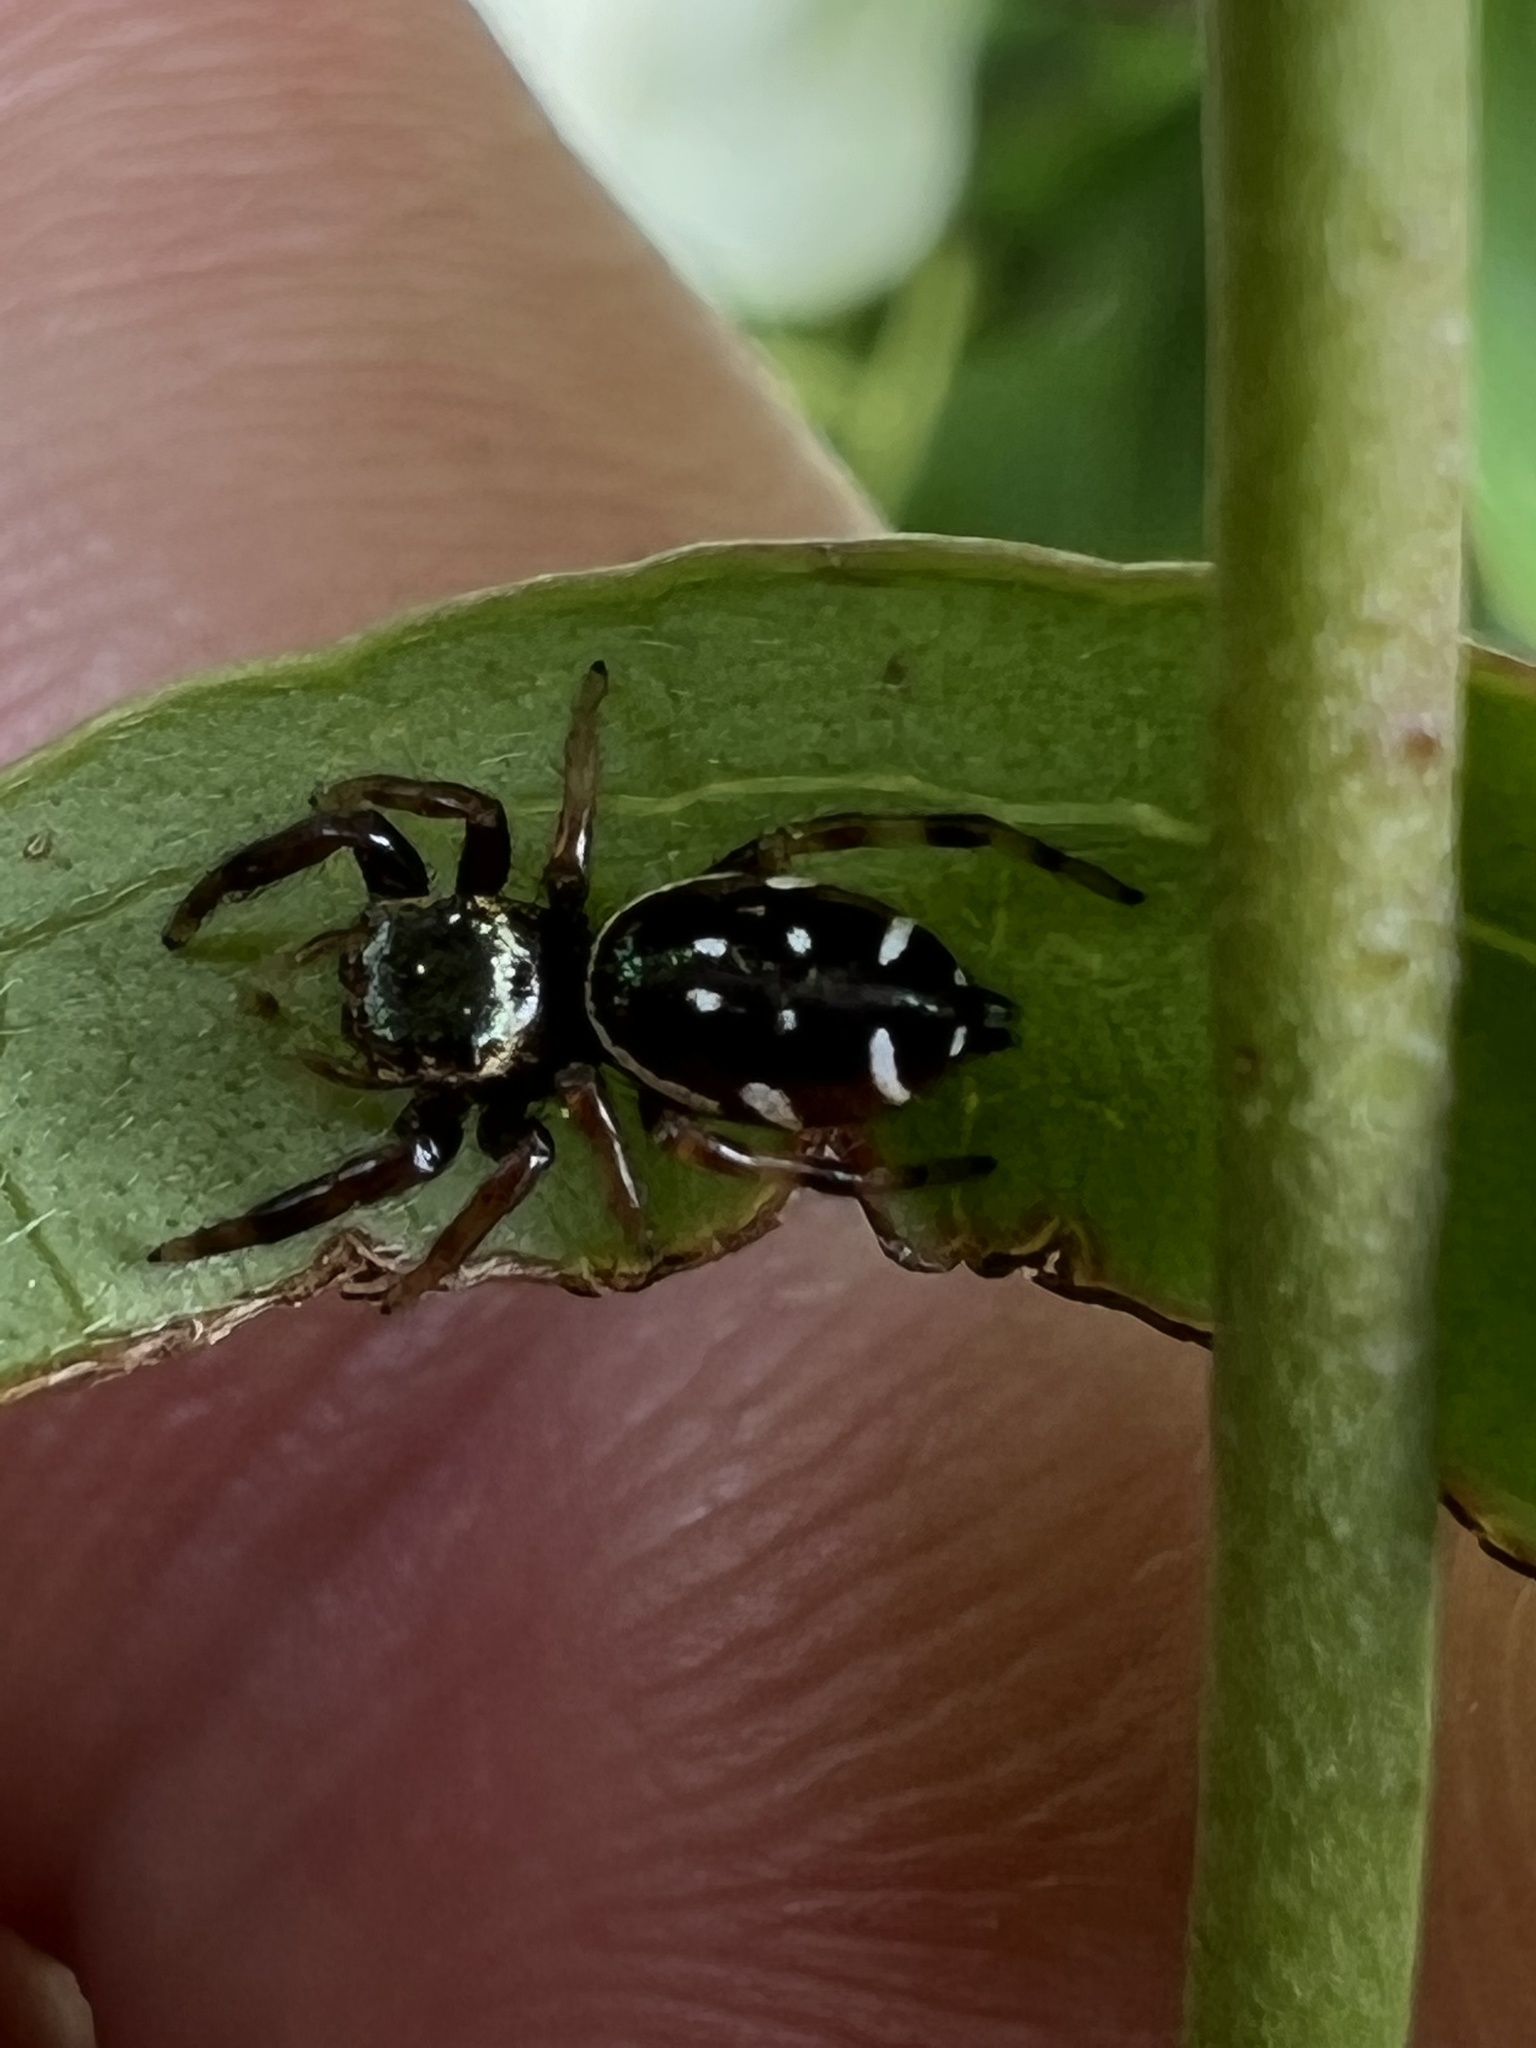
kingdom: Animalia
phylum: Arthropoda
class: Arachnida
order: Araneae
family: Salticidae
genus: Paraphidippus
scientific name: Paraphidippus aurantius
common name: Jumping spiders
